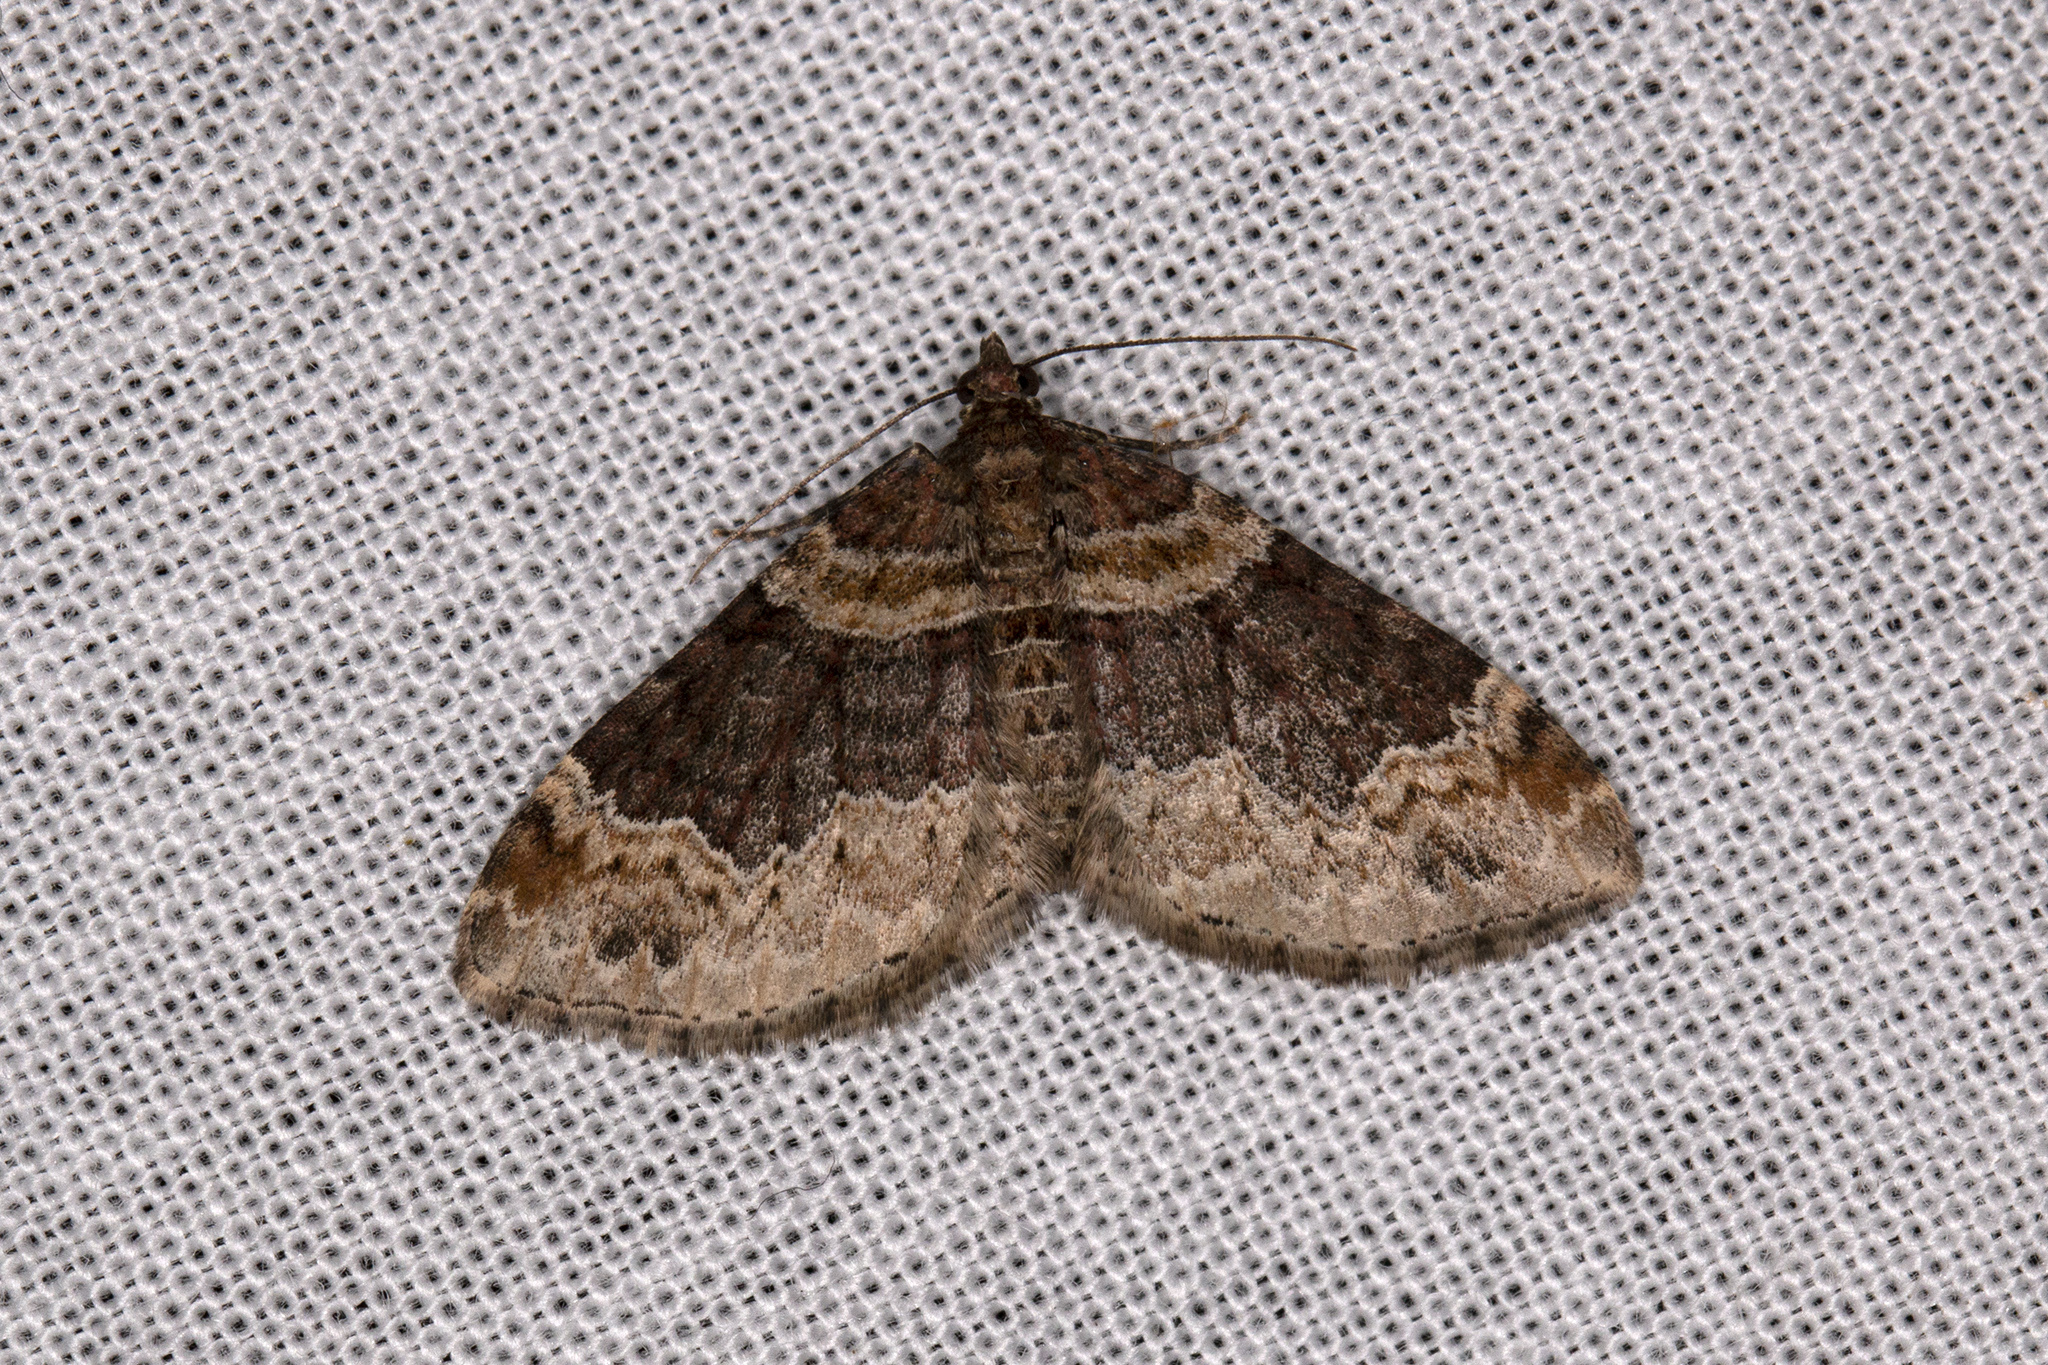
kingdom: Animalia
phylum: Arthropoda
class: Insecta
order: Lepidoptera
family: Geometridae
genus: Xanthorhoe
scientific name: Xanthorhoe ferrugata
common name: Dark-barred twin-spot carpet
